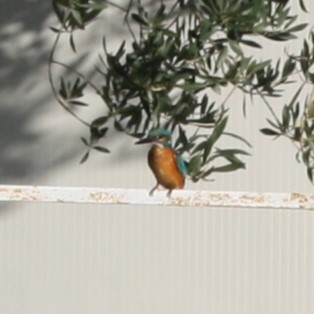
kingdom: Animalia
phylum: Chordata
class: Aves
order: Coraciiformes
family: Alcedinidae
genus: Alcedo
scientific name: Alcedo atthis
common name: Common kingfisher
